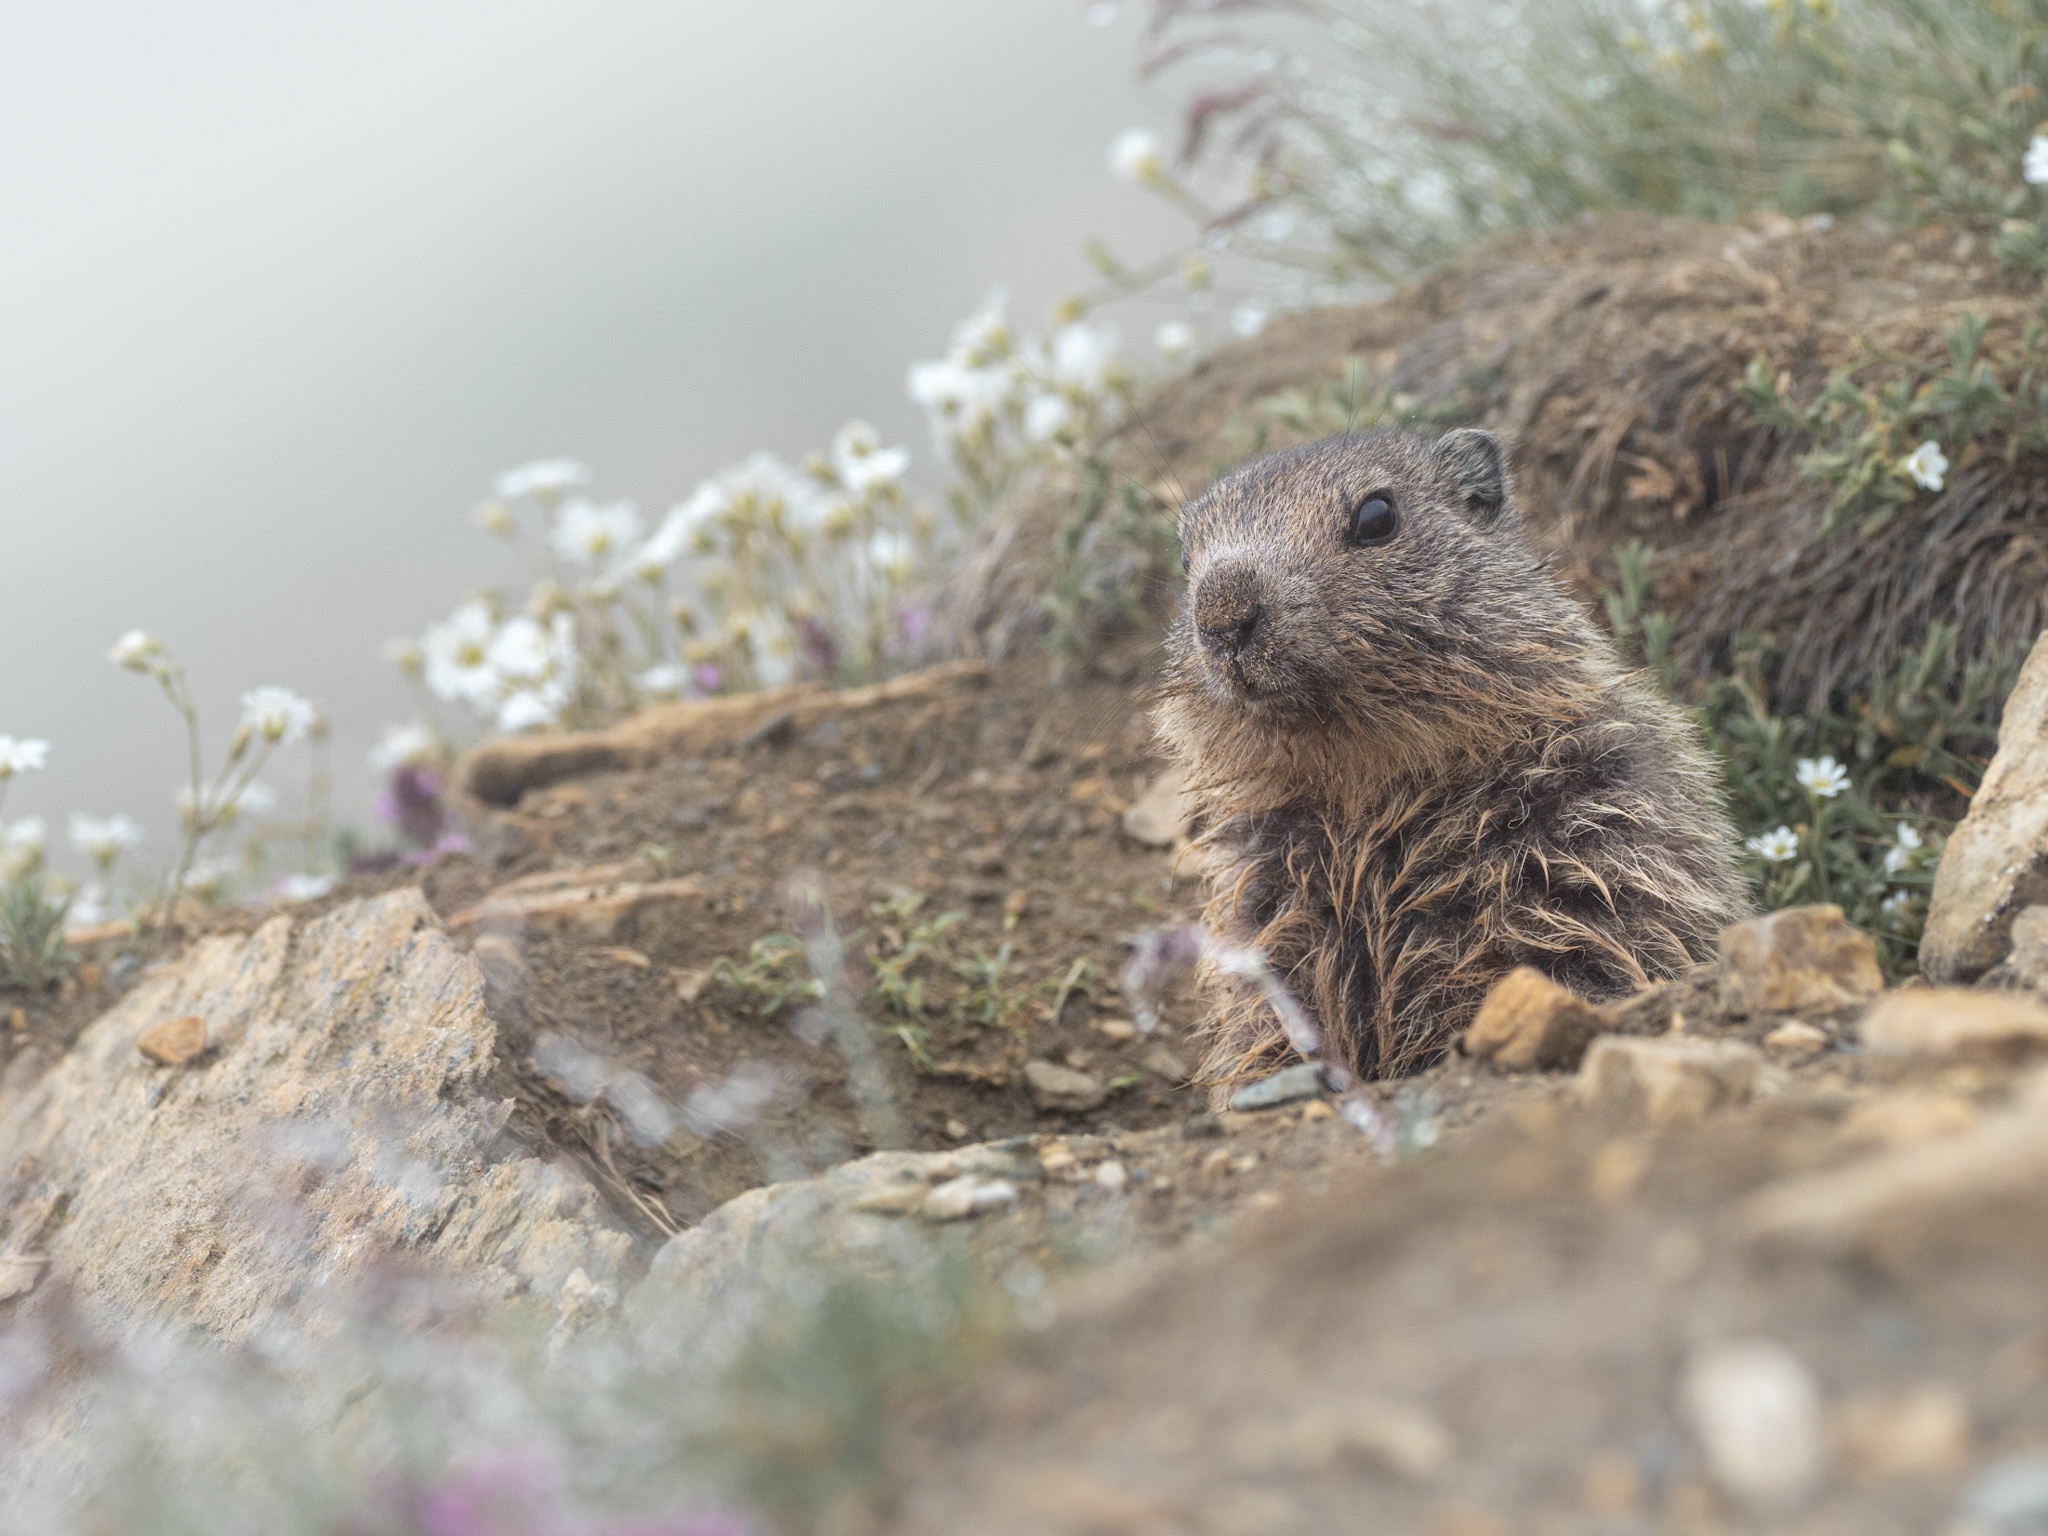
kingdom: Animalia
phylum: Chordata
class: Mammalia
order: Rodentia
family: Sciuridae
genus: Marmota
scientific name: Marmota marmota
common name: Alpine marmot
